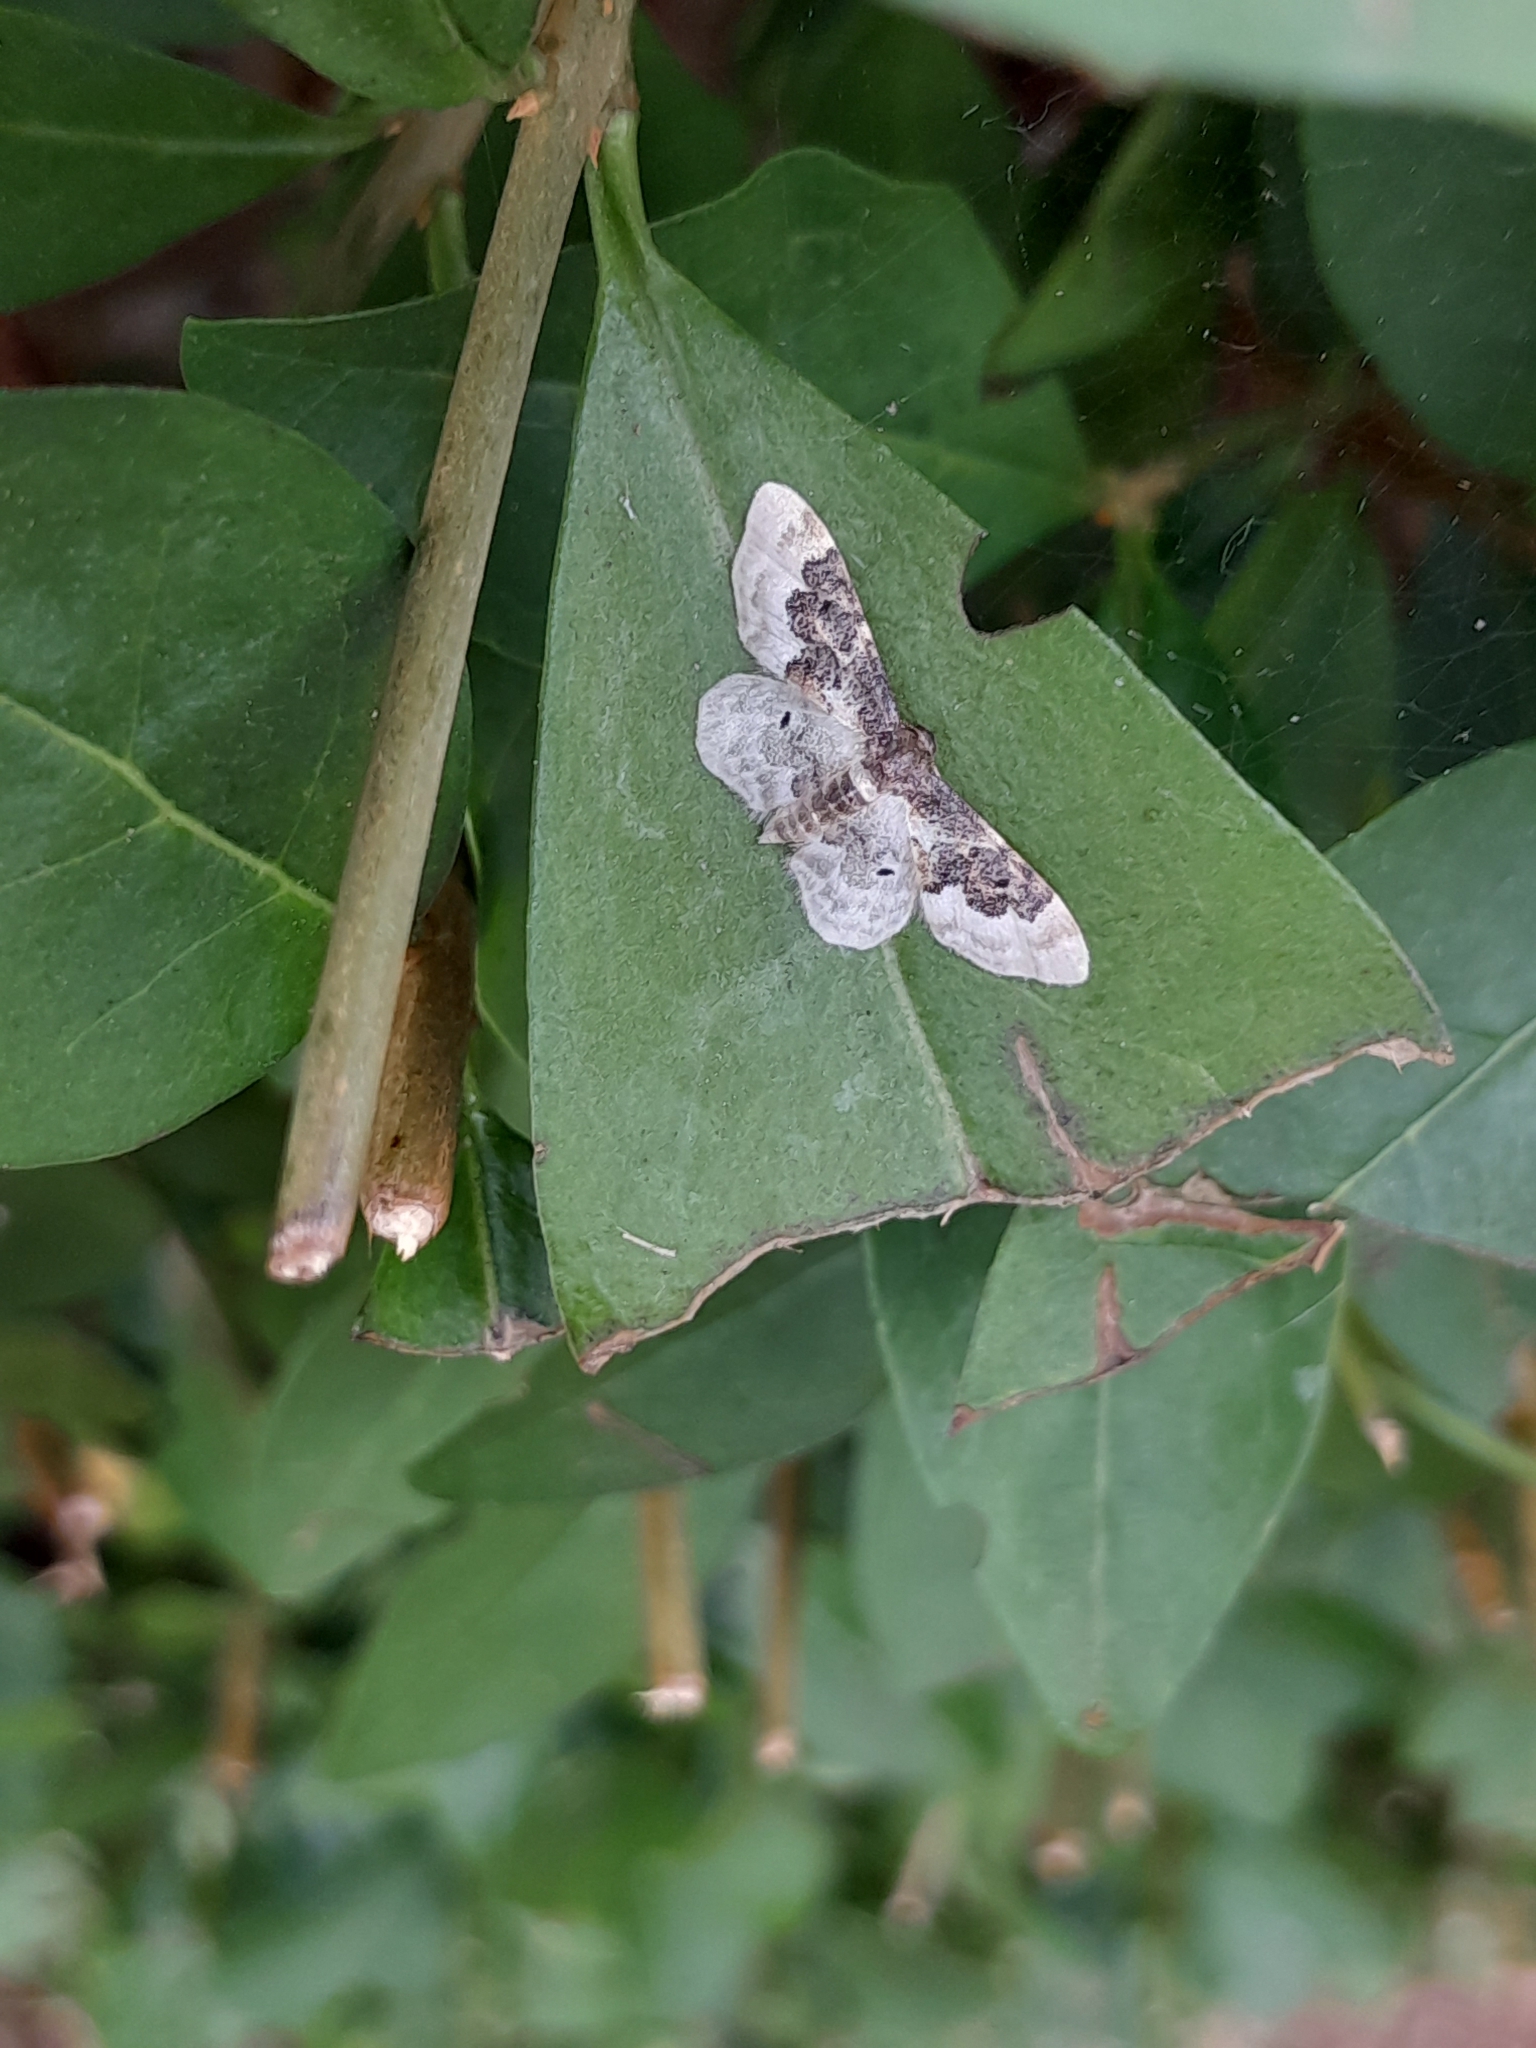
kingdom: Animalia
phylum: Arthropoda
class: Insecta
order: Lepidoptera
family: Geometridae
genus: Idaea
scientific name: Idaea rusticata
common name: Least carpet
